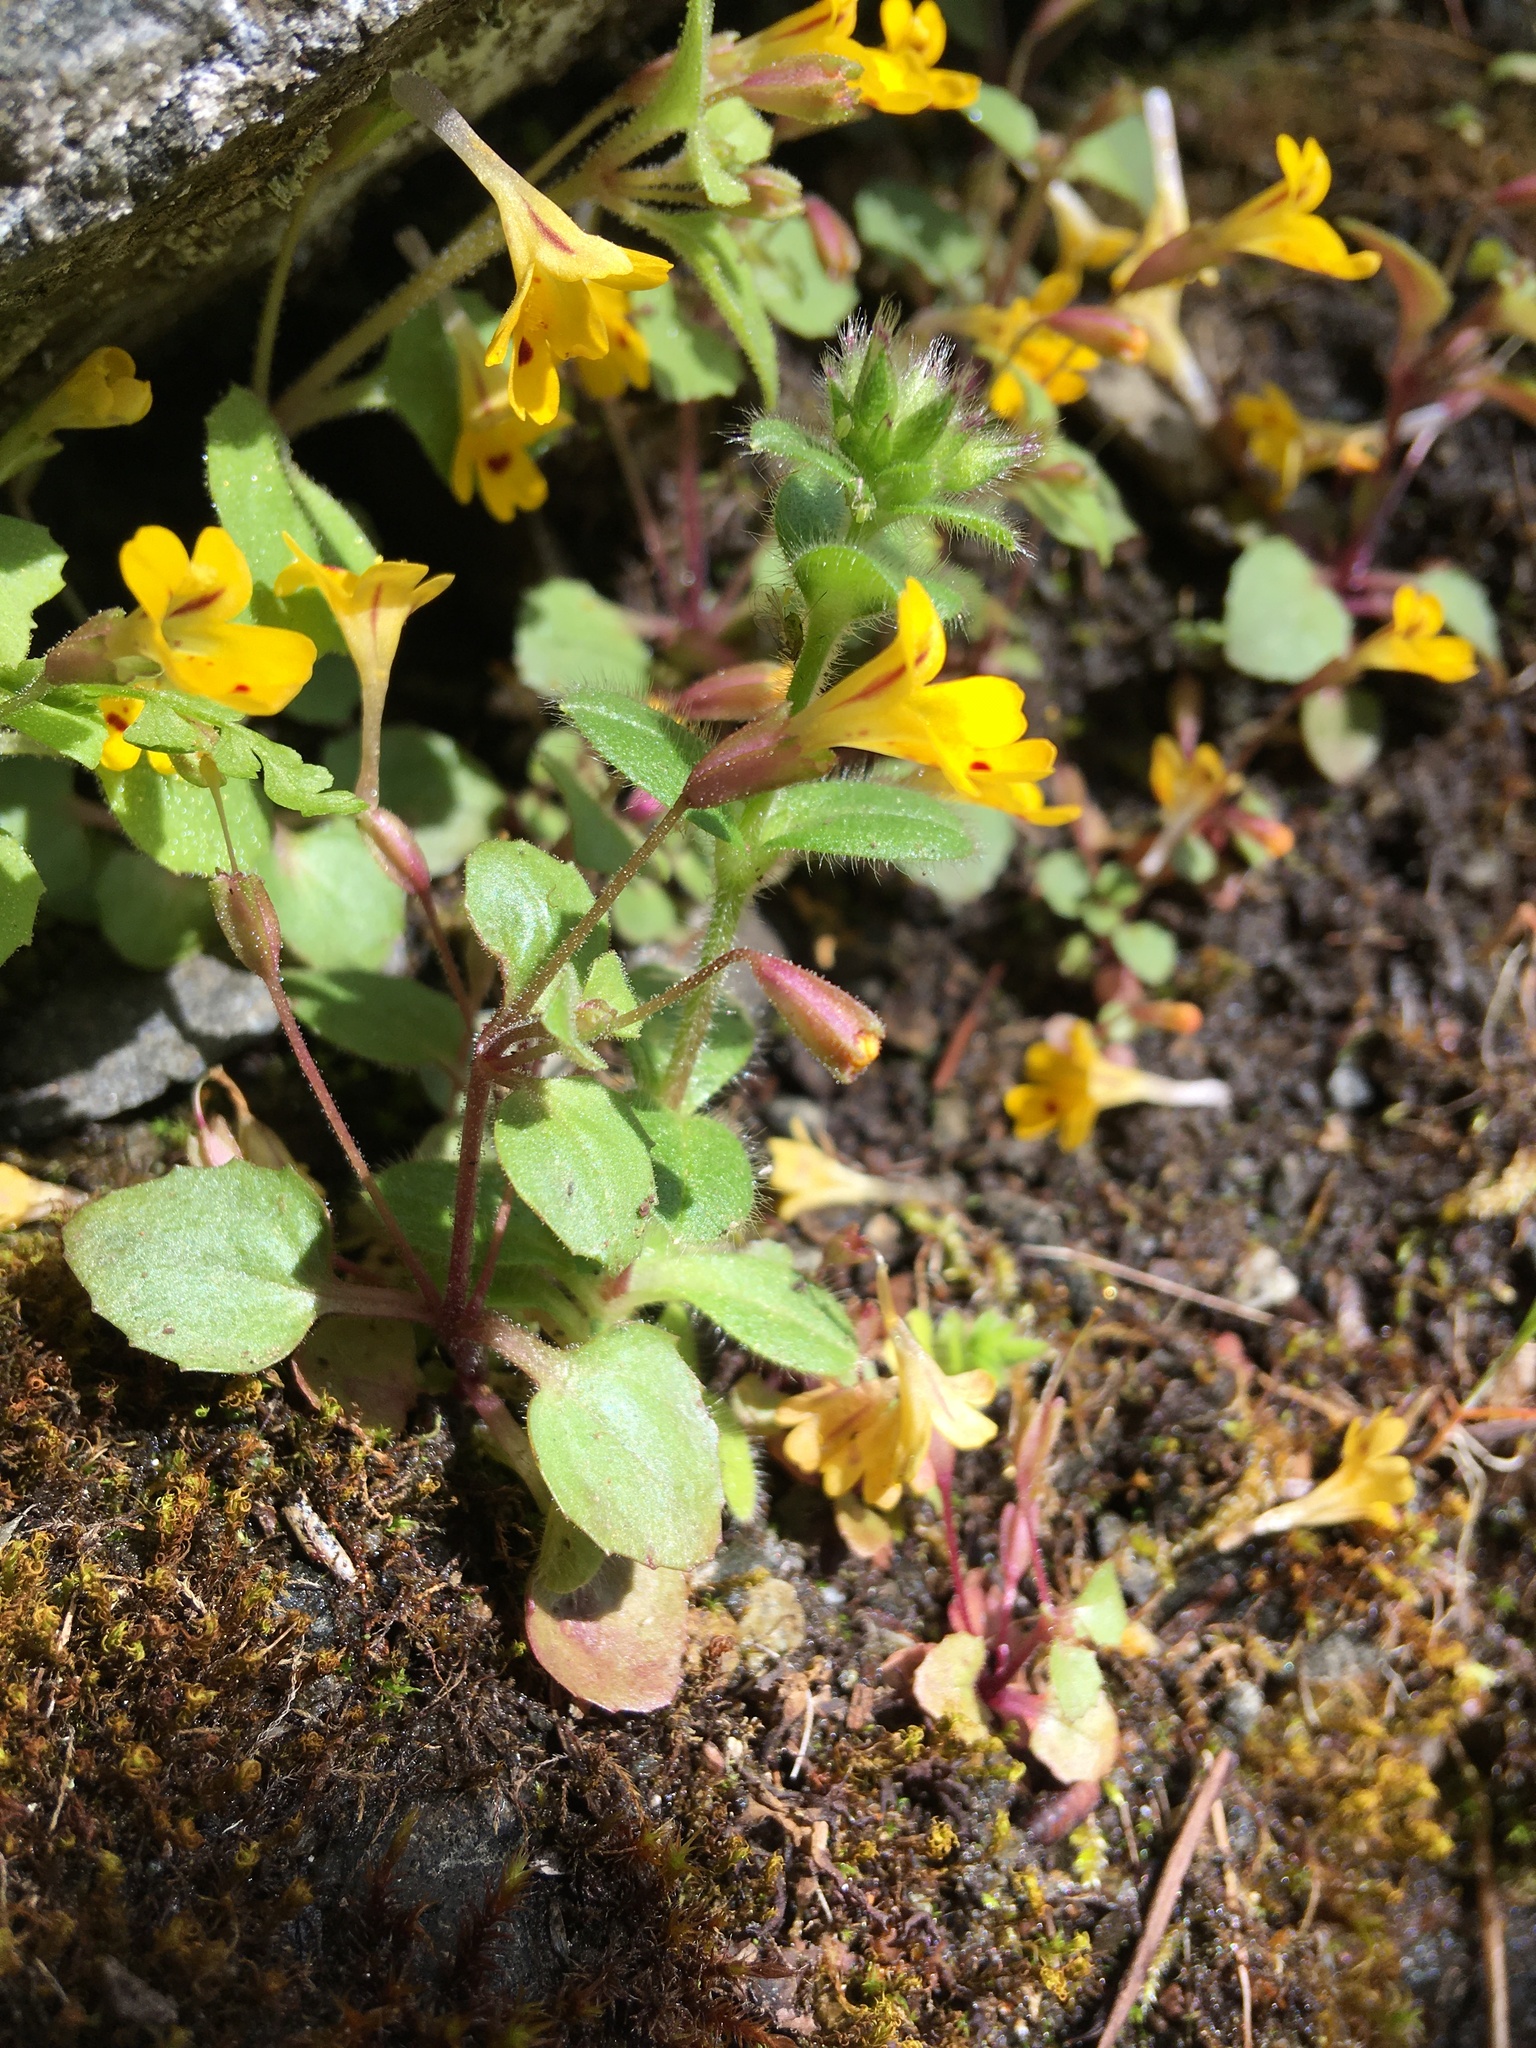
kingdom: Plantae
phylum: Tracheophyta
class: Magnoliopsida
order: Lamiales
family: Phrymaceae
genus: Erythranthe
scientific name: Erythranthe alsinoides
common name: Chickweed monkeyflower
